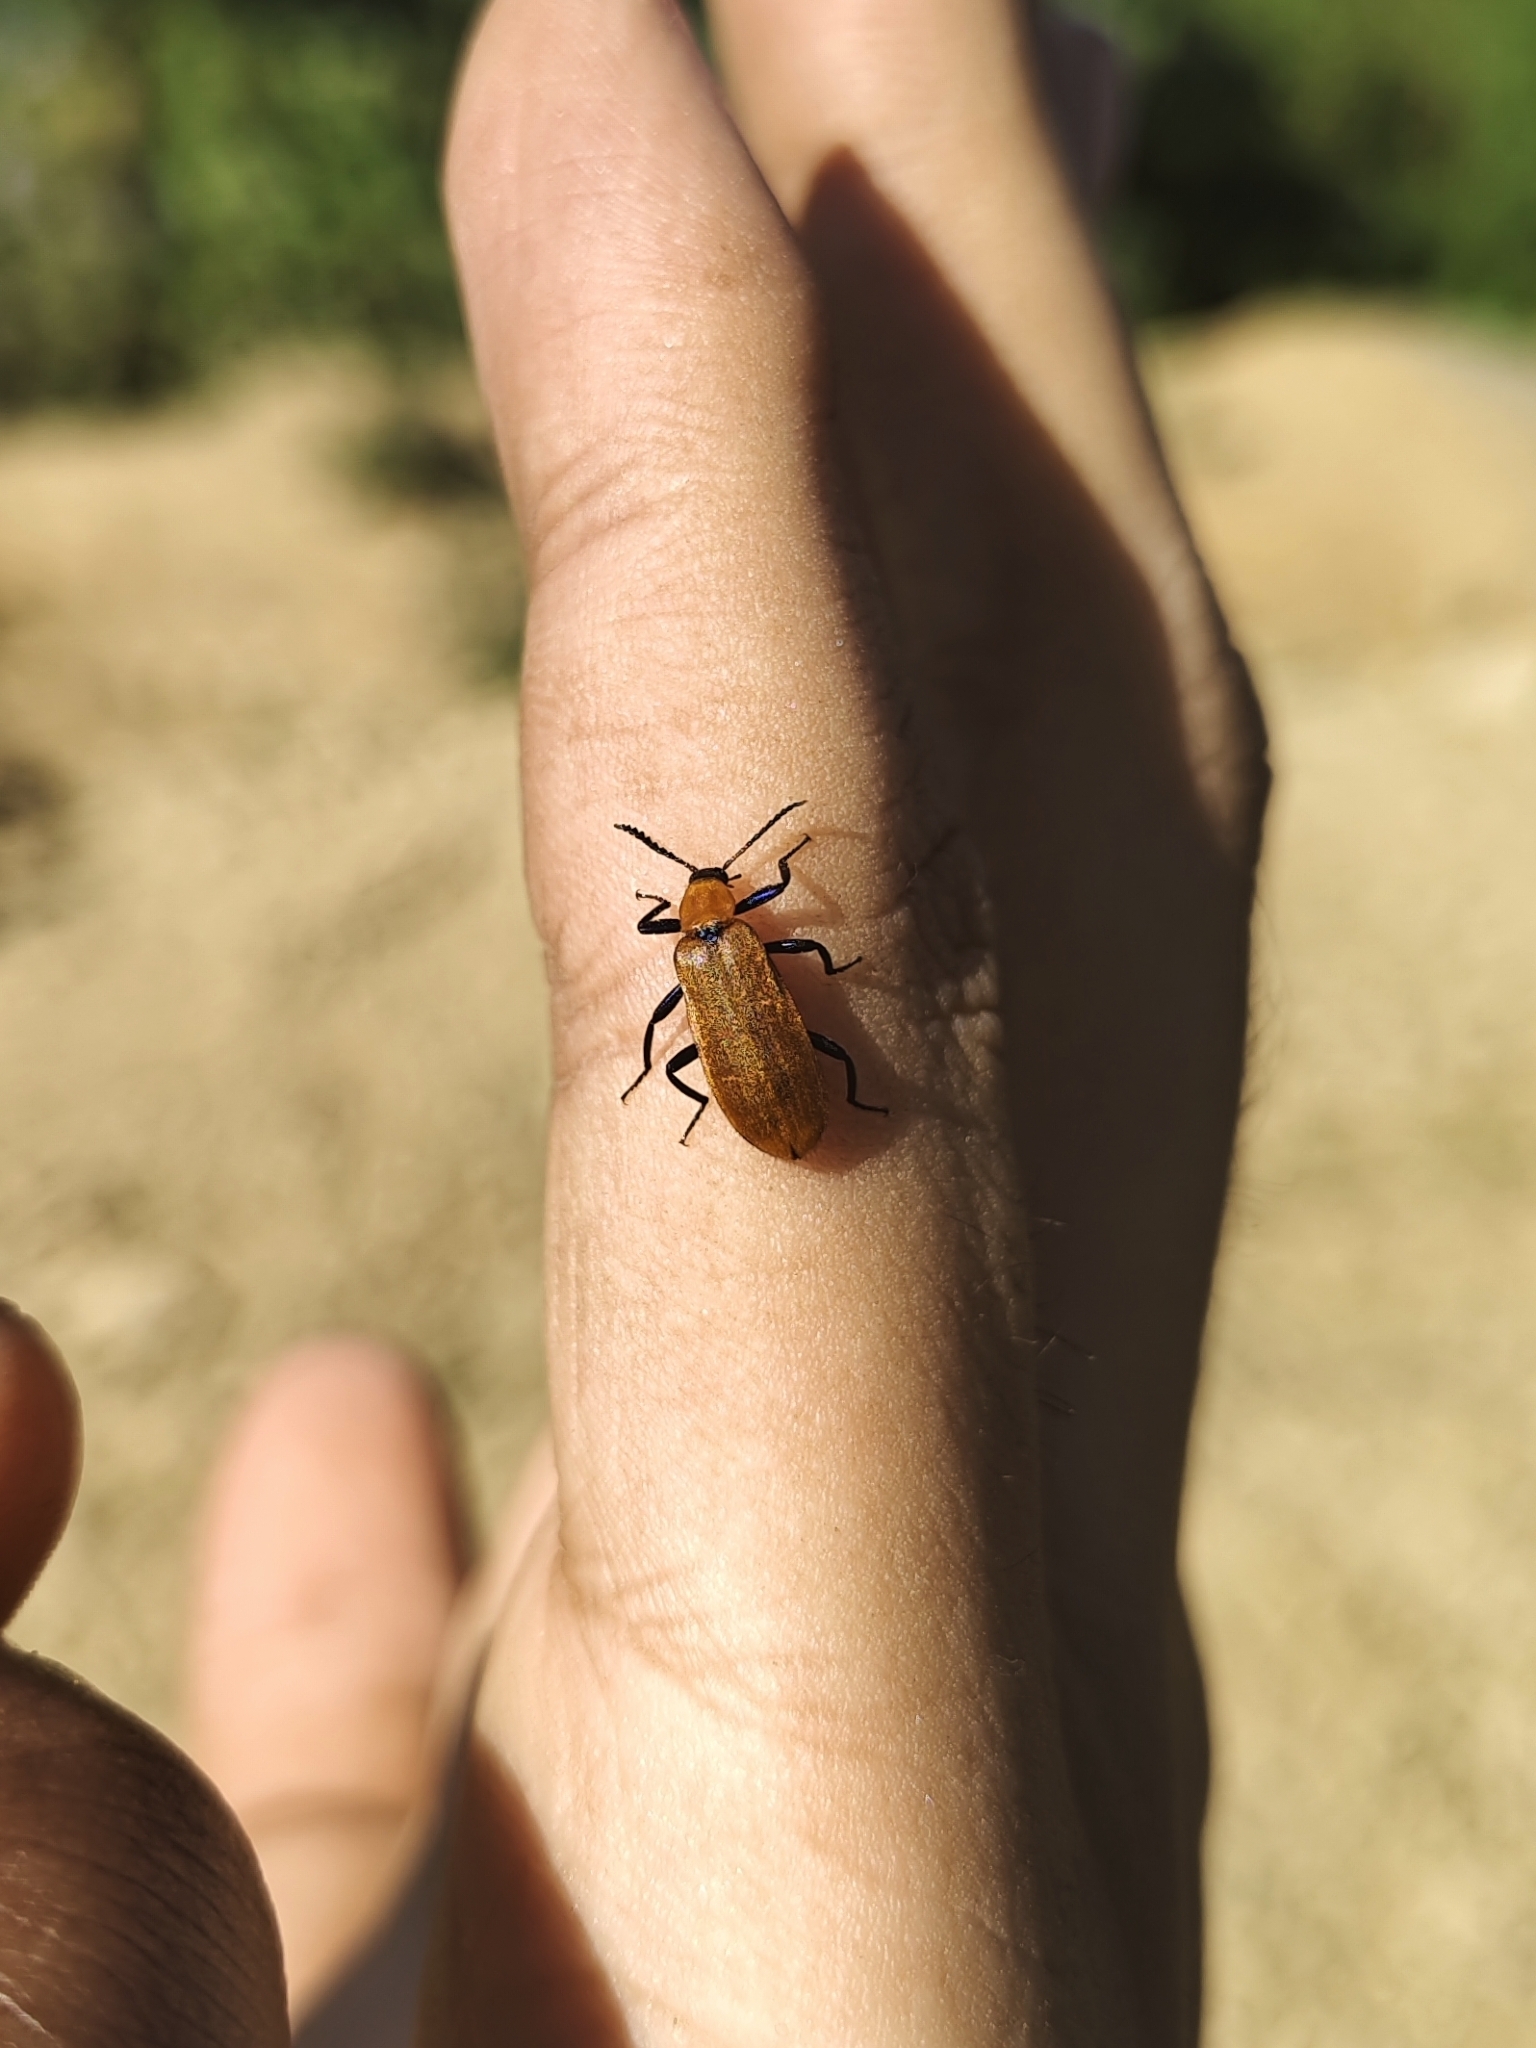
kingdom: Animalia
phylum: Arthropoda
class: Insecta
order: Coleoptera
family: Prionoceridae
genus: Prionocerus
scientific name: Prionocerus bicolor
